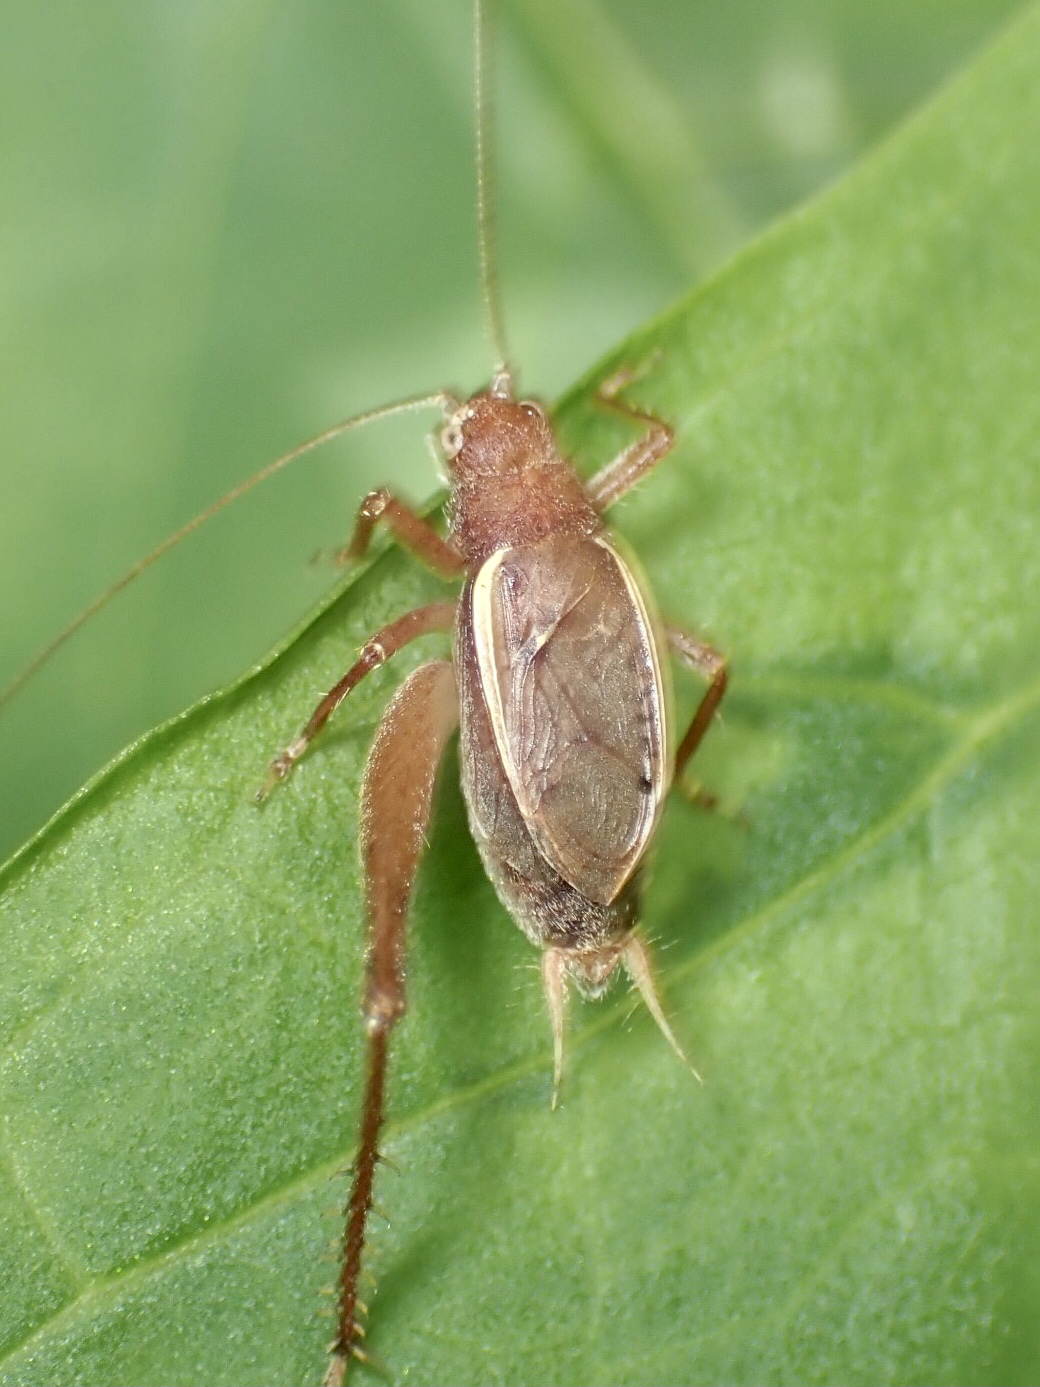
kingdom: Animalia
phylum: Arthropoda
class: Insecta
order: Orthoptera
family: Gryllidae
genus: Hapithus
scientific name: Hapithus agitator
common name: Restless bush cricket
